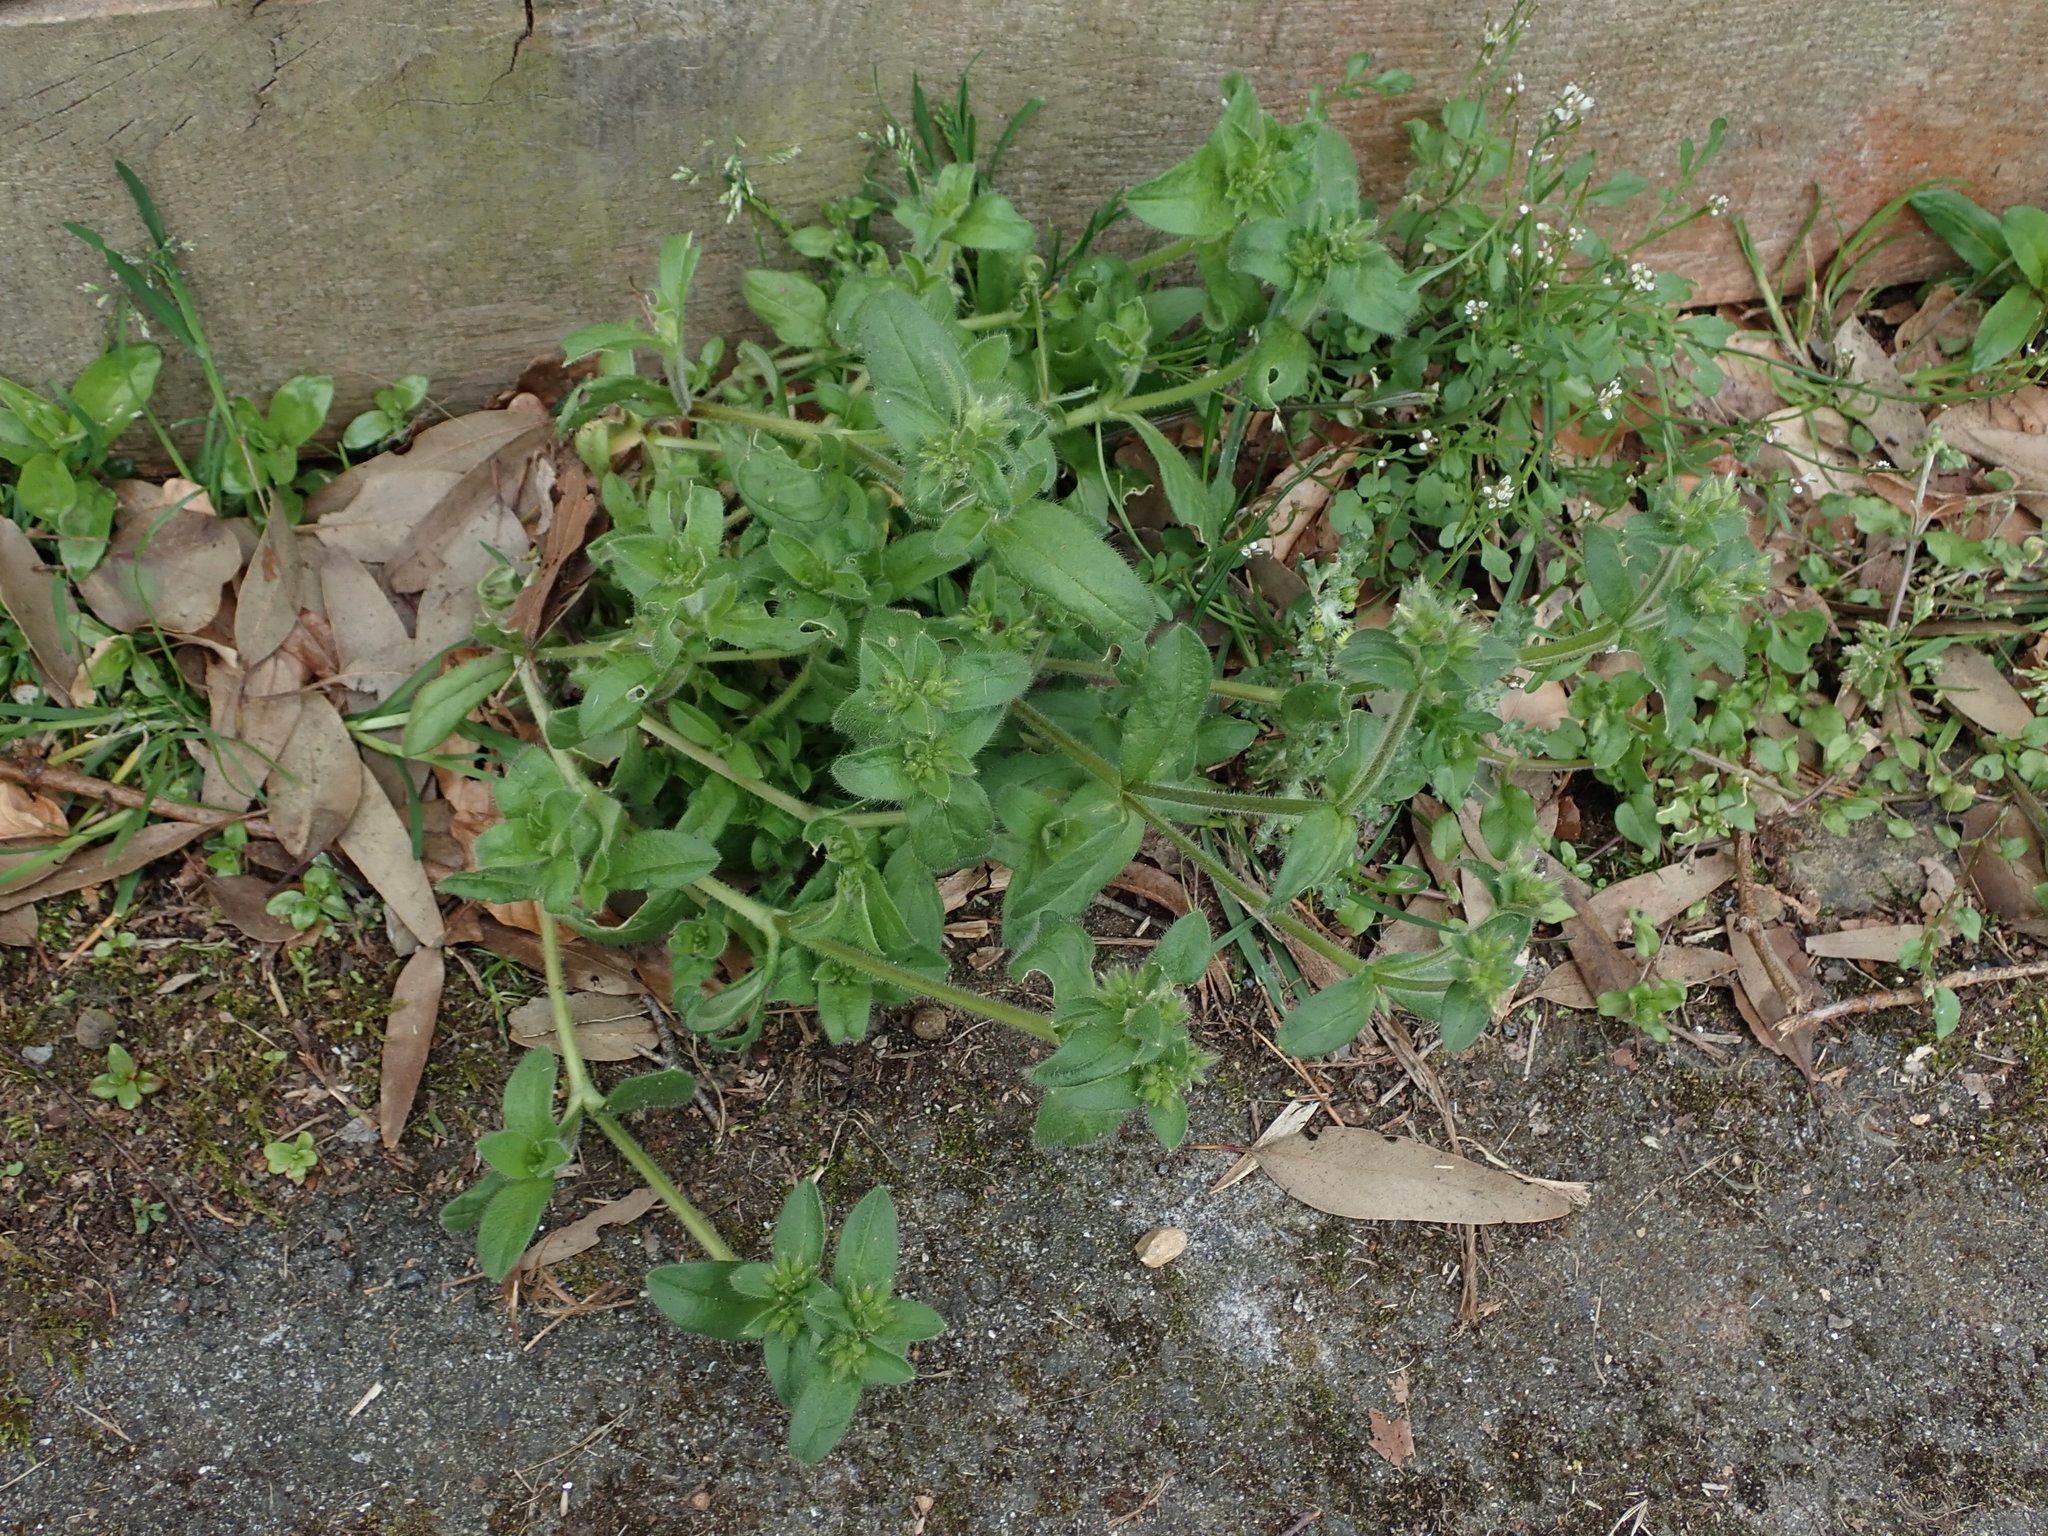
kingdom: Plantae
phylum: Tracheophyta
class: Magnoliopsida
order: Caryophyllales
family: Caryophyllaceae
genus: Cerastium
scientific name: Cerastium glomeratum
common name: Sticky chickweed
